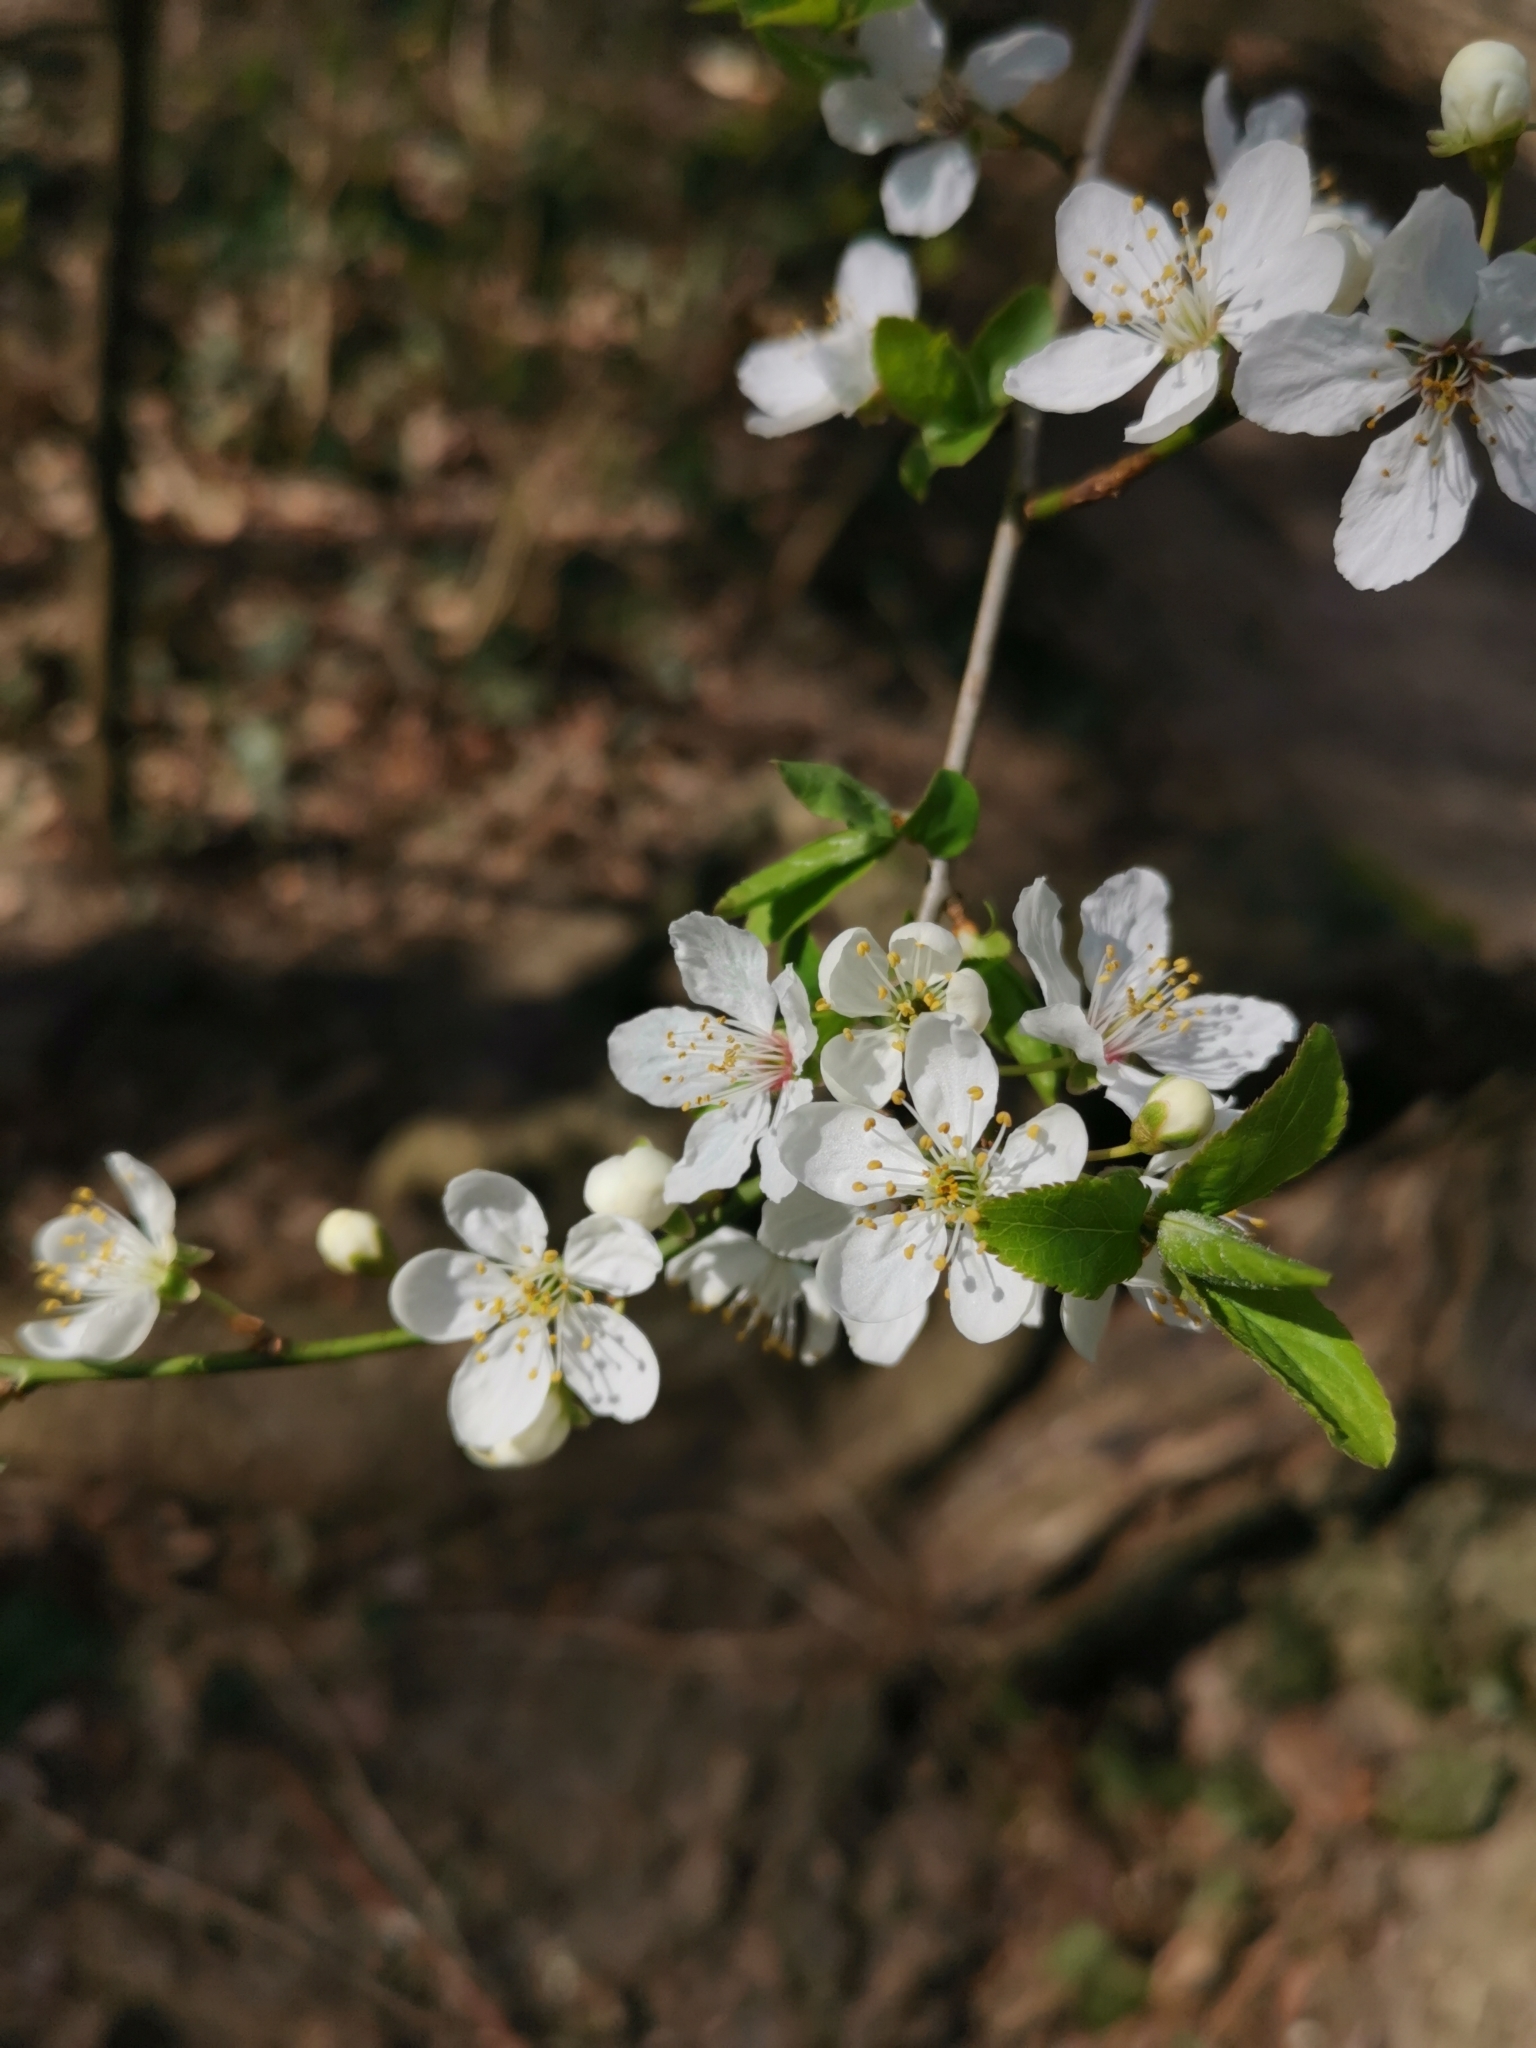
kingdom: Plantae
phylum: Tracheophyta
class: Magnoliopsida
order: Rosales
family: Rosaceae
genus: Prunus
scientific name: Prunus cerasifera
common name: Cherry plum
